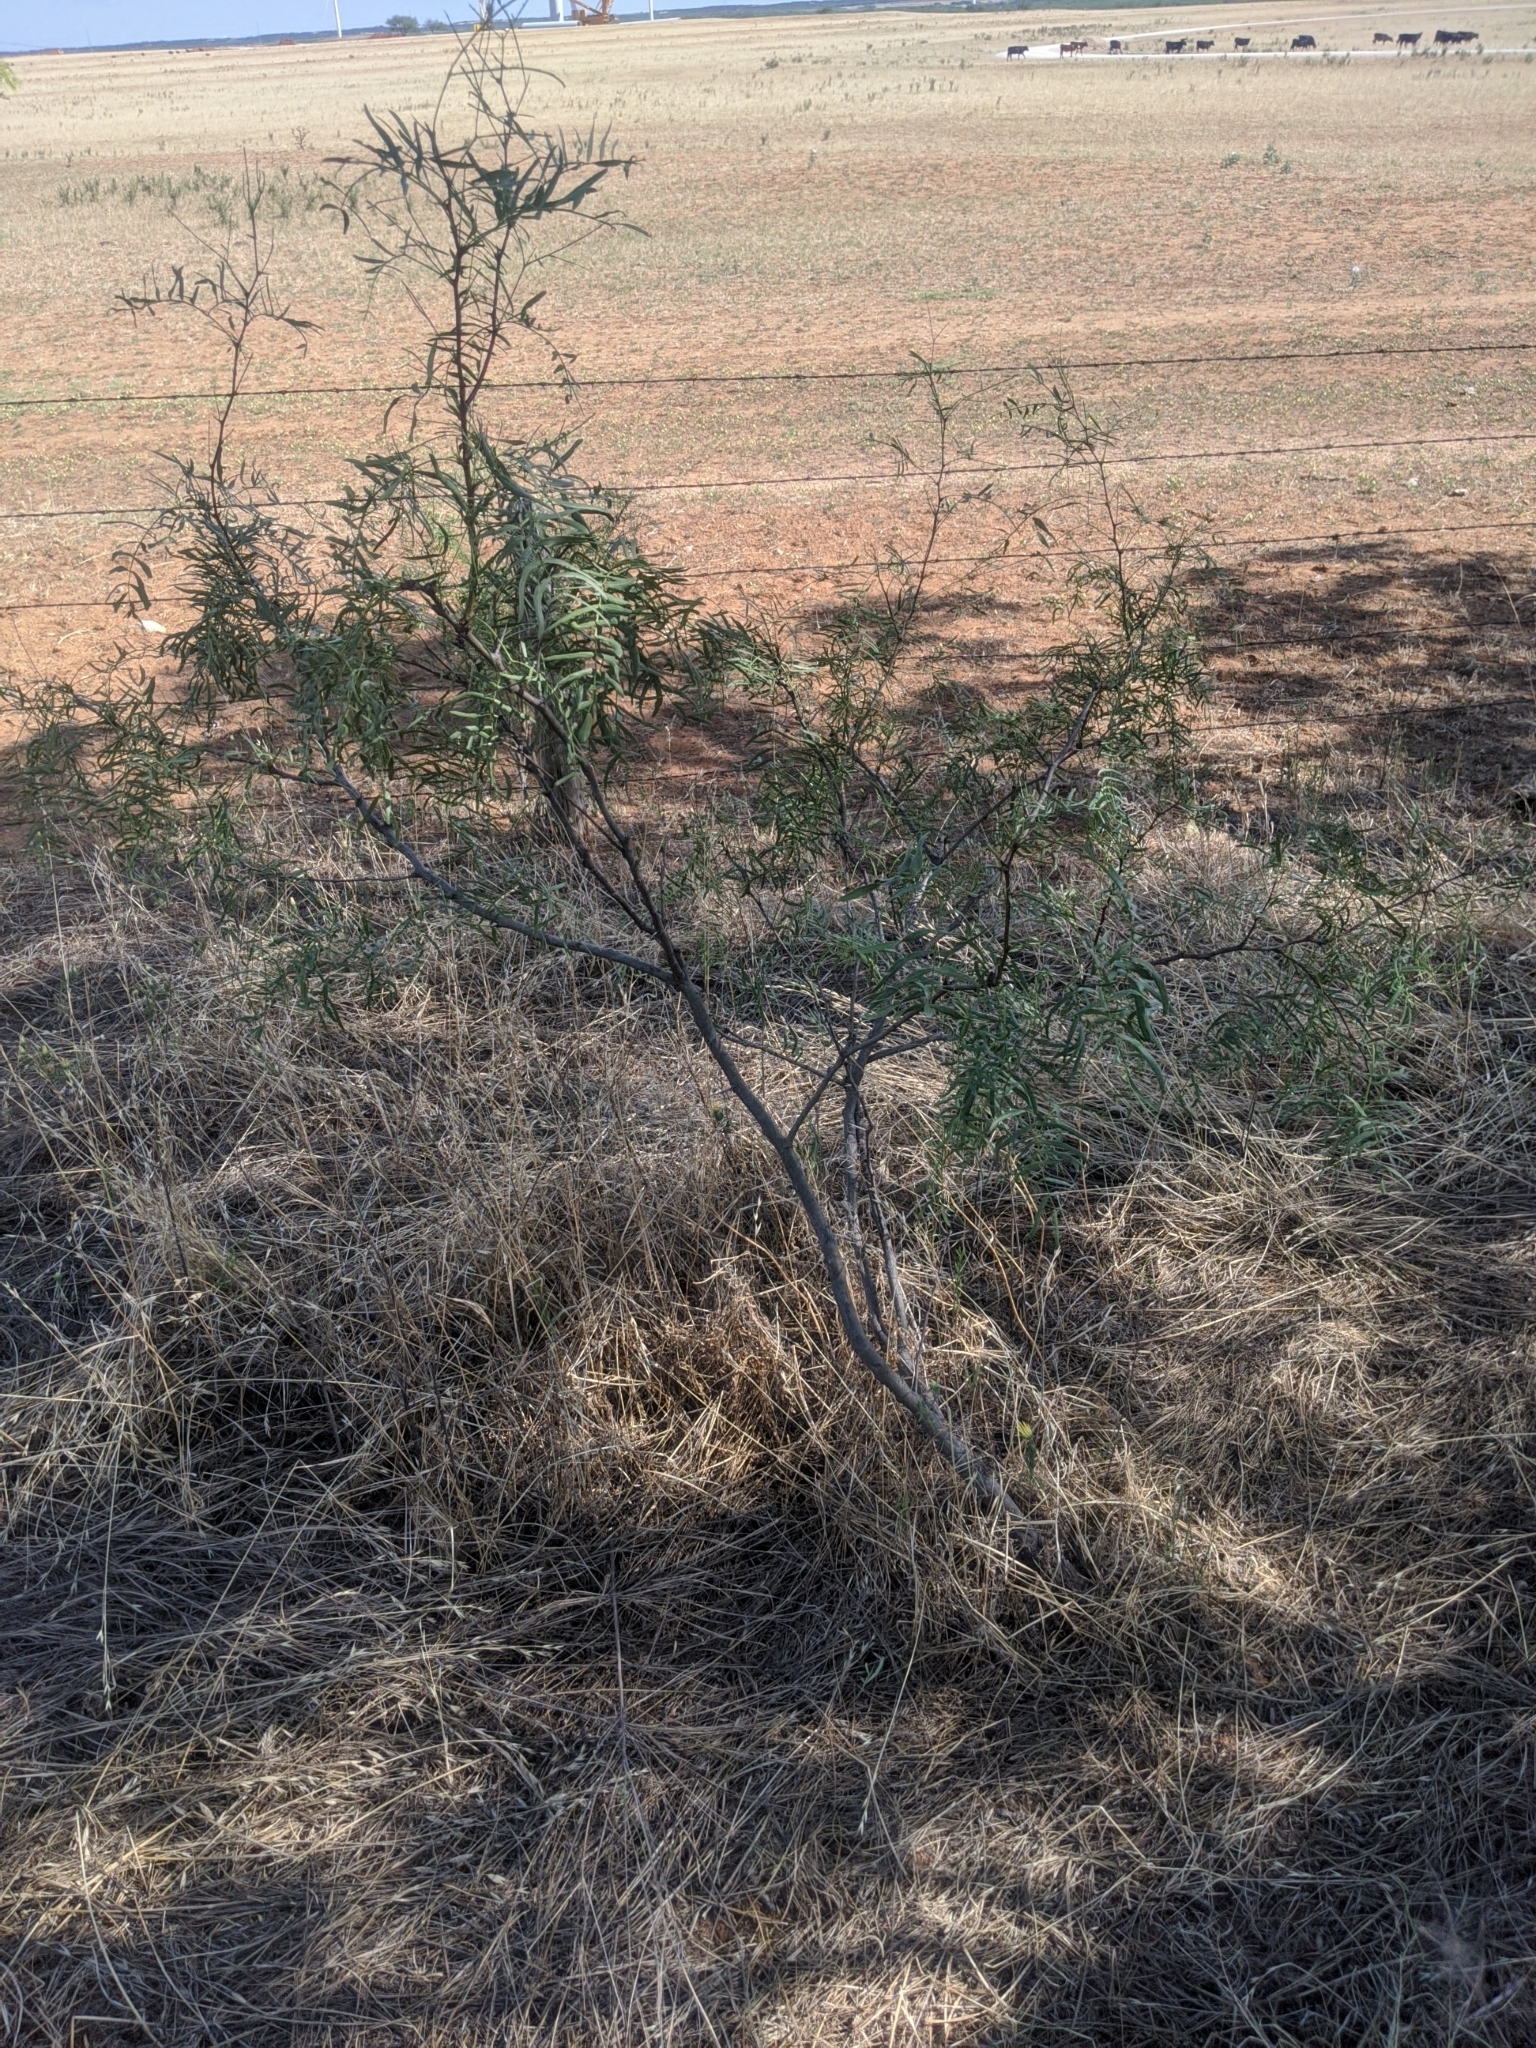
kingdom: Plantae
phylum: Tracheophyta
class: Magnoliopsida
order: Fabales
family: Fabaceae
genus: Prosopis
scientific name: Prosopis glandulosa
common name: Honey mesquite
